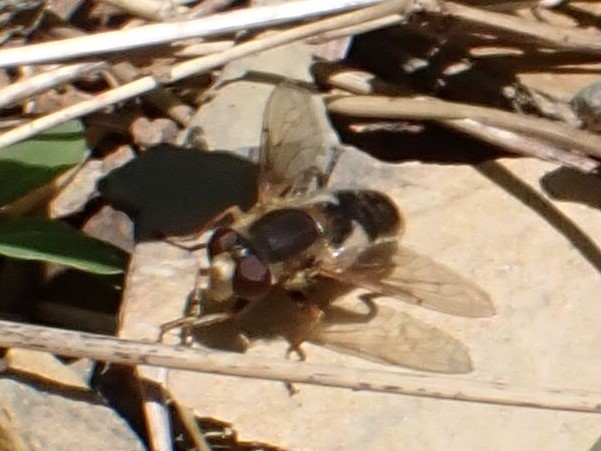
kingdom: Animalia
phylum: Arthropoda
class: Insecta
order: Diptera
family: Syrphidae
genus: Anasimyia
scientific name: Anasimyia bilinearis
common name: Two-lined swamp fly
